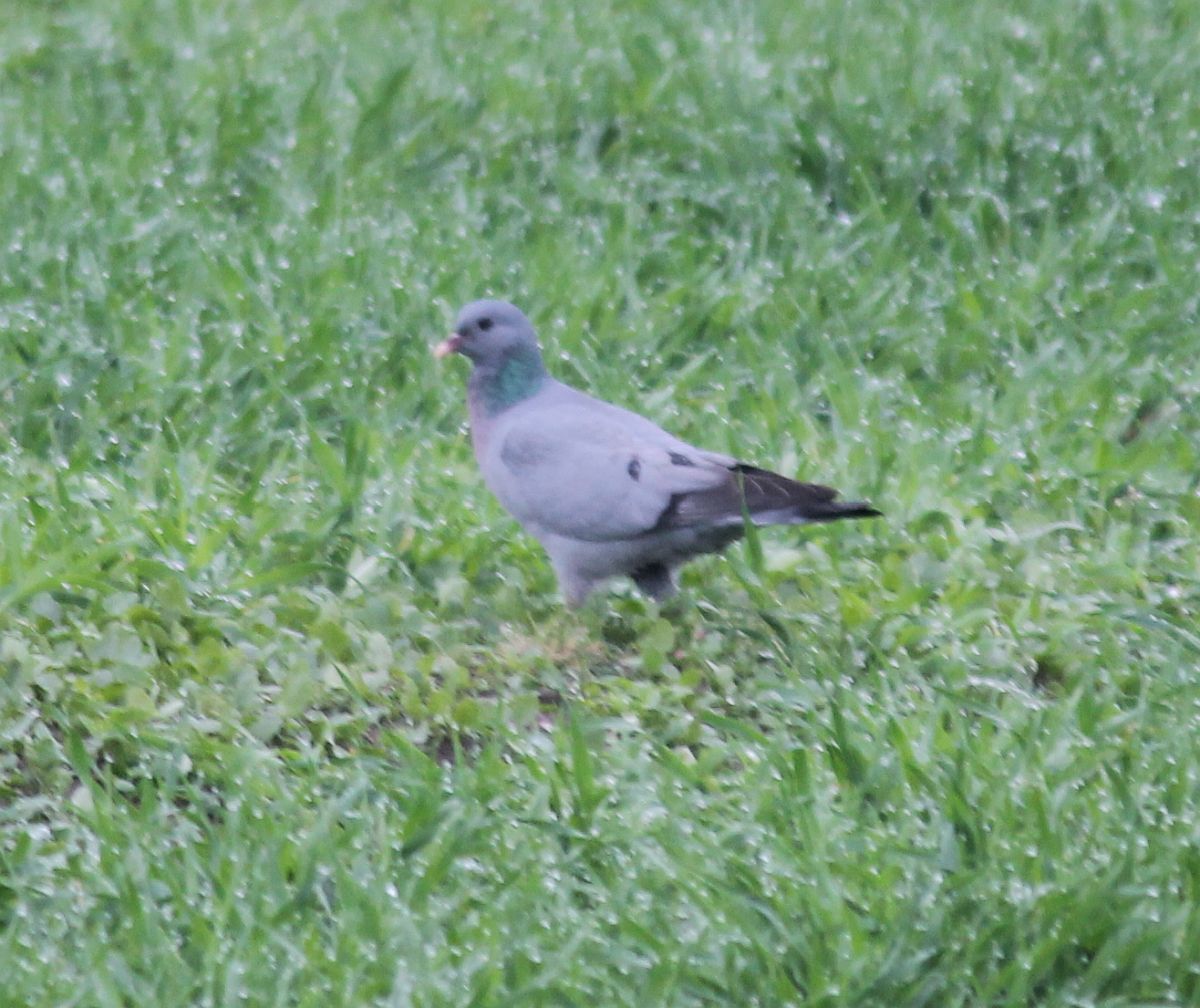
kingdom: Animalia
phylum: Chordata
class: Aves
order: Columbiformes
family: Columbidae
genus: Columba
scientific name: Columba oenas
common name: Stock dove
